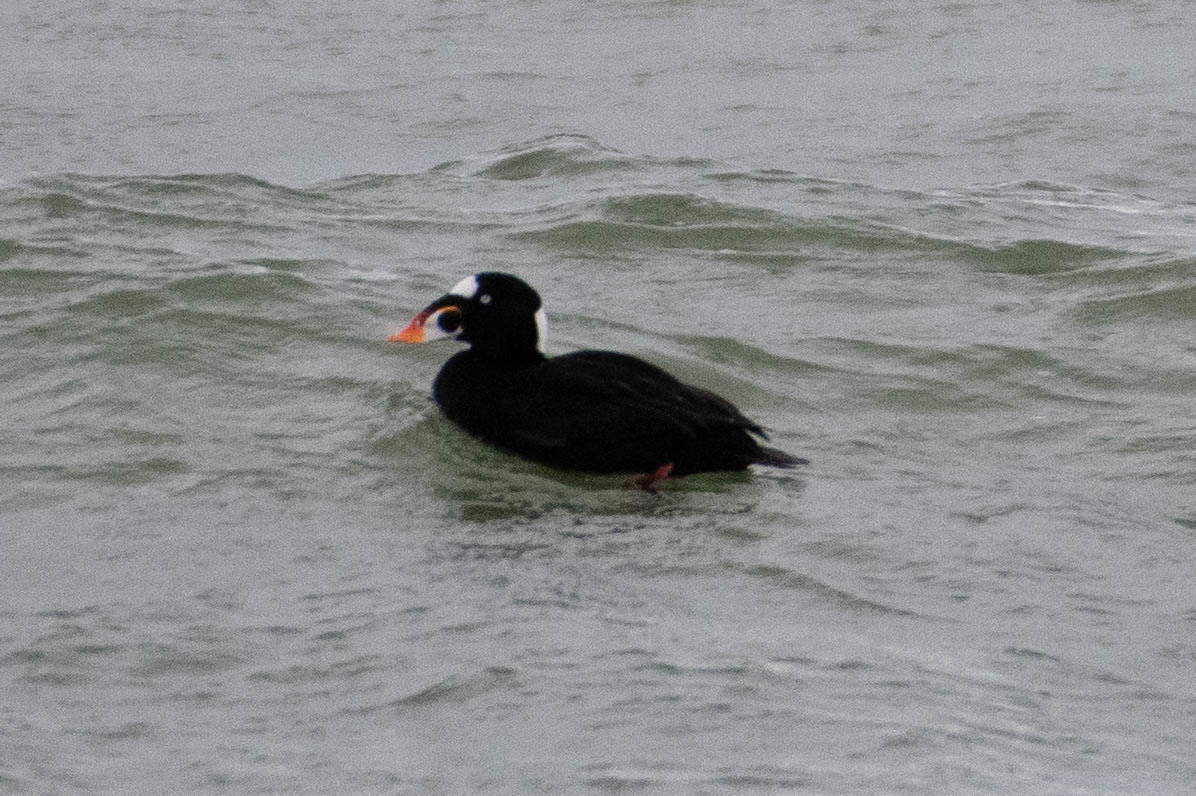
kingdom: Animalia
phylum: Chordata
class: Aves
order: Anseriformes
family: Anatidae
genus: Melanitta
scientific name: Melanitta perspicillata
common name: Surf scoter
